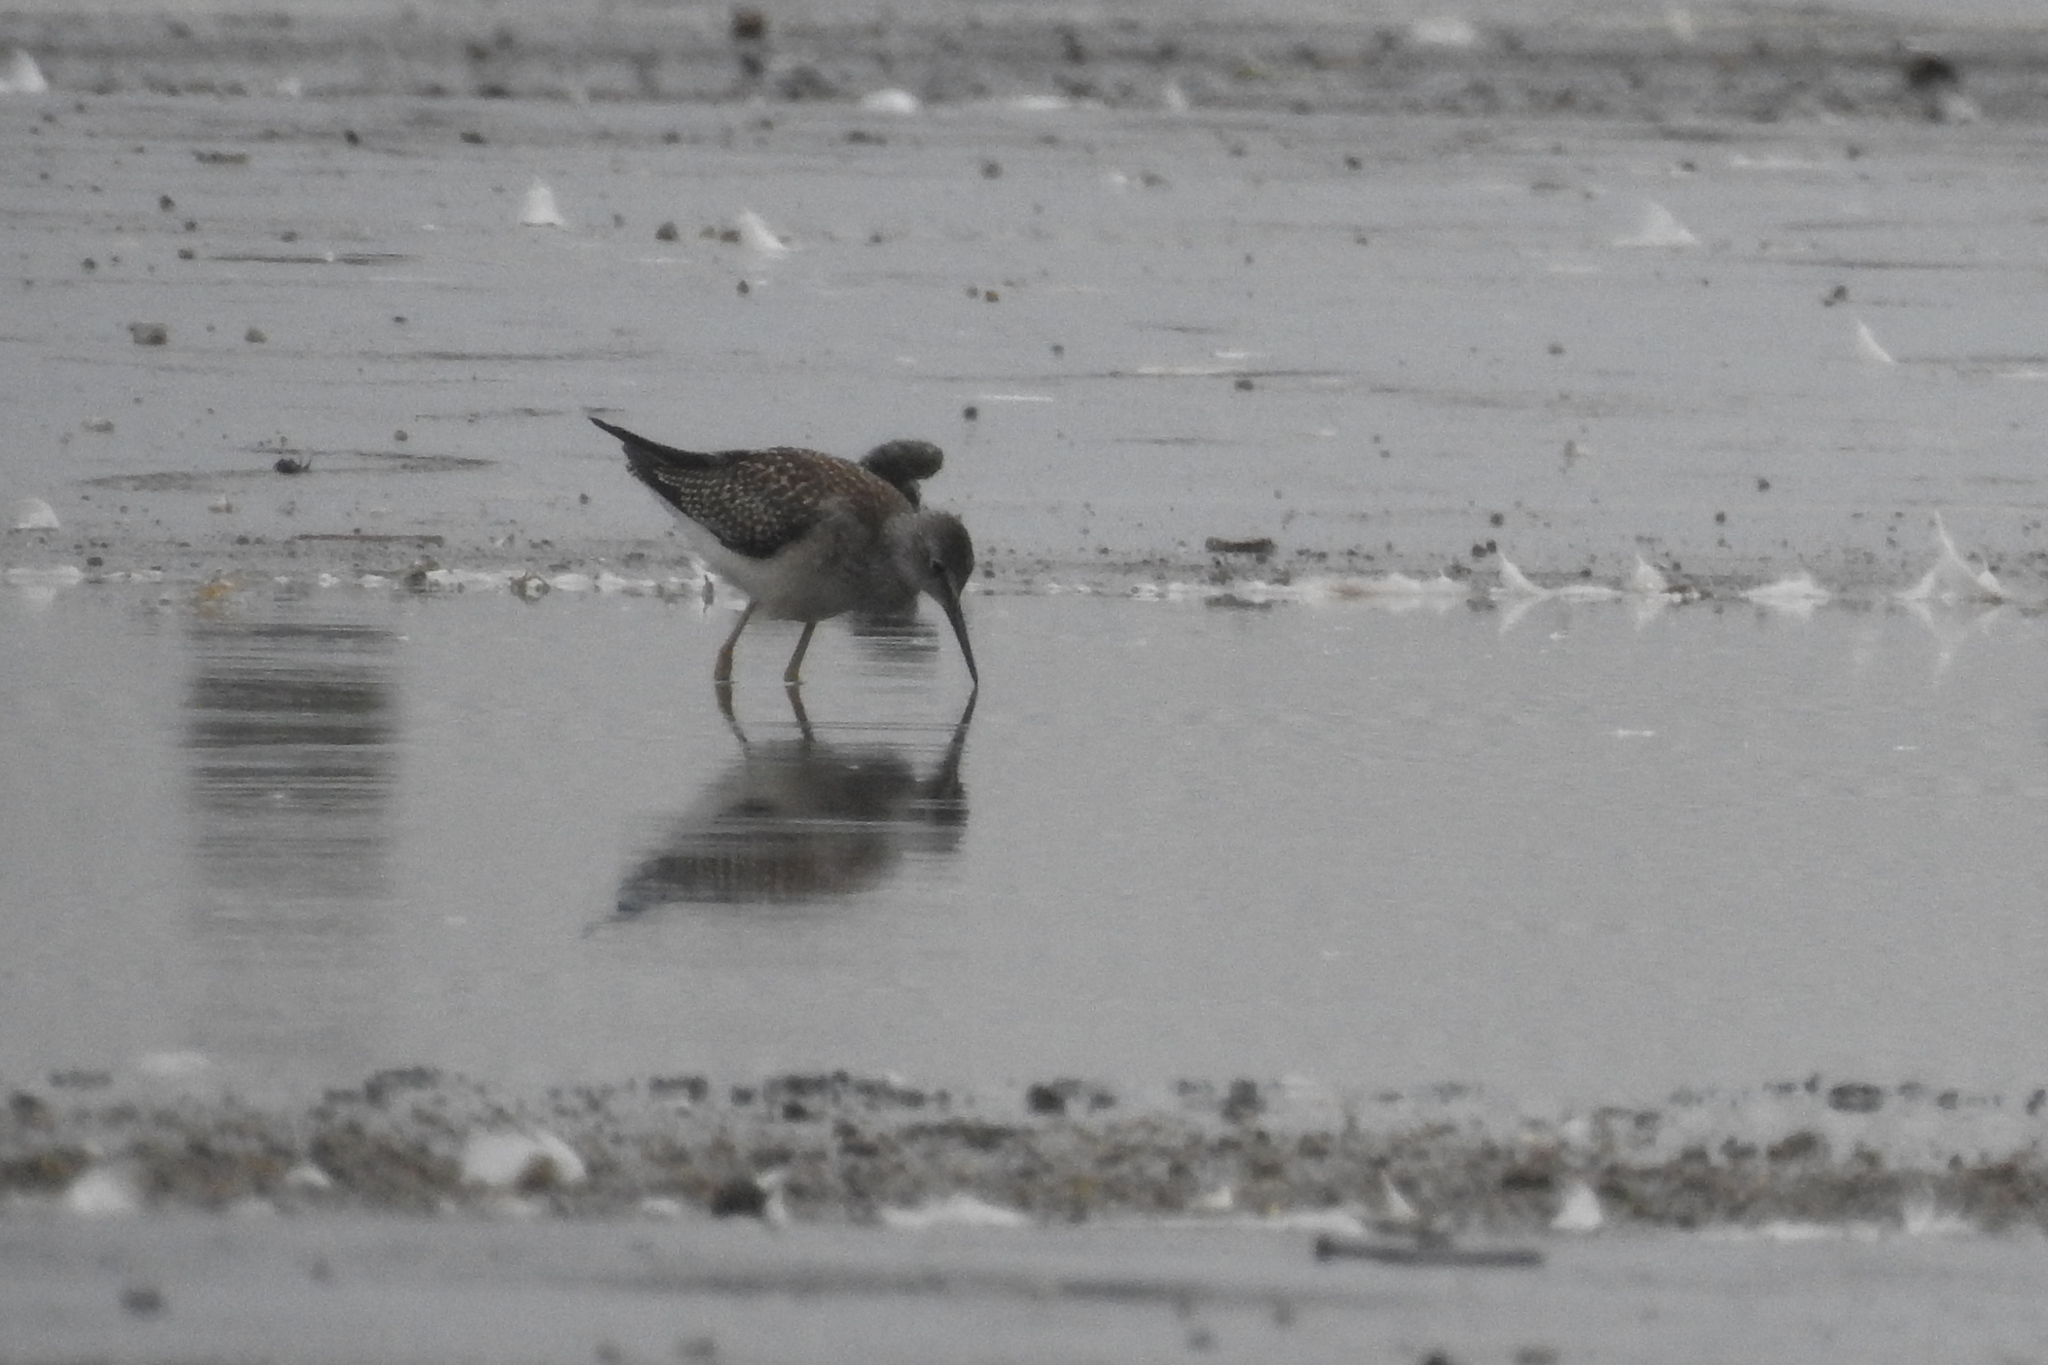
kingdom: Animalia
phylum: Chordata
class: Aves
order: Charadriiformes
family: Scolopacidae
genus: Tringa
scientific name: Tringa flavipes
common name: Lesser yellowlegs
